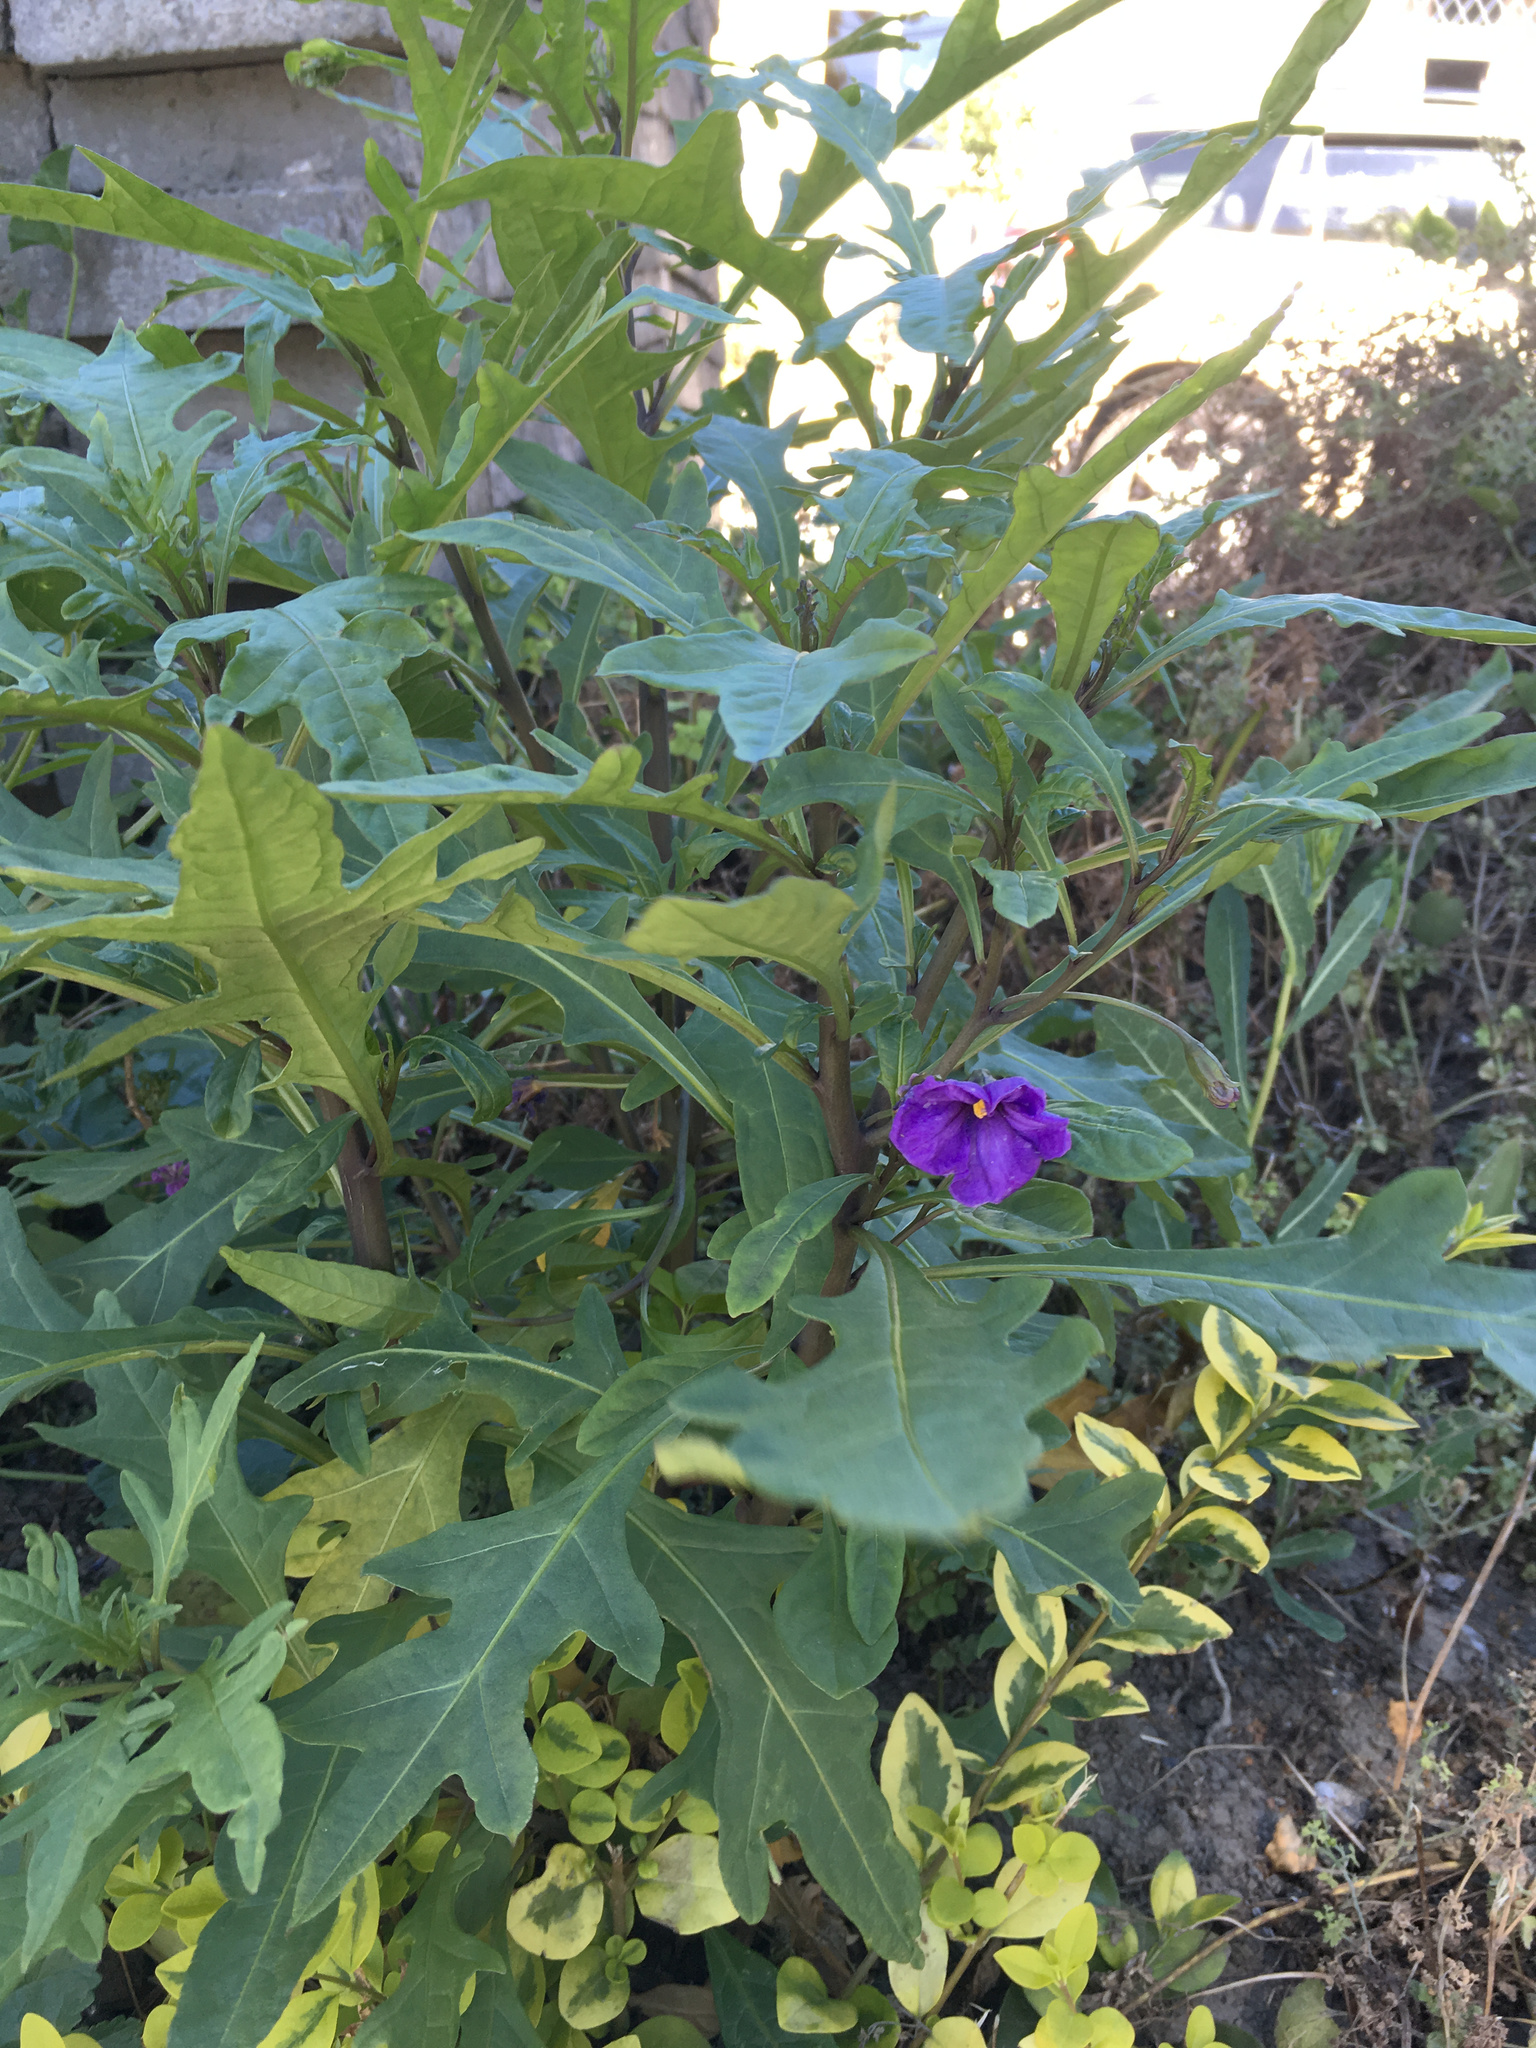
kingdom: Plantae
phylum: Tracheophyta
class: Magnoliopsida
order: Solanales
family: Solanaceae
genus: Solanum
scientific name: Solanum laciniatum
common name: Kangaroo-apple
